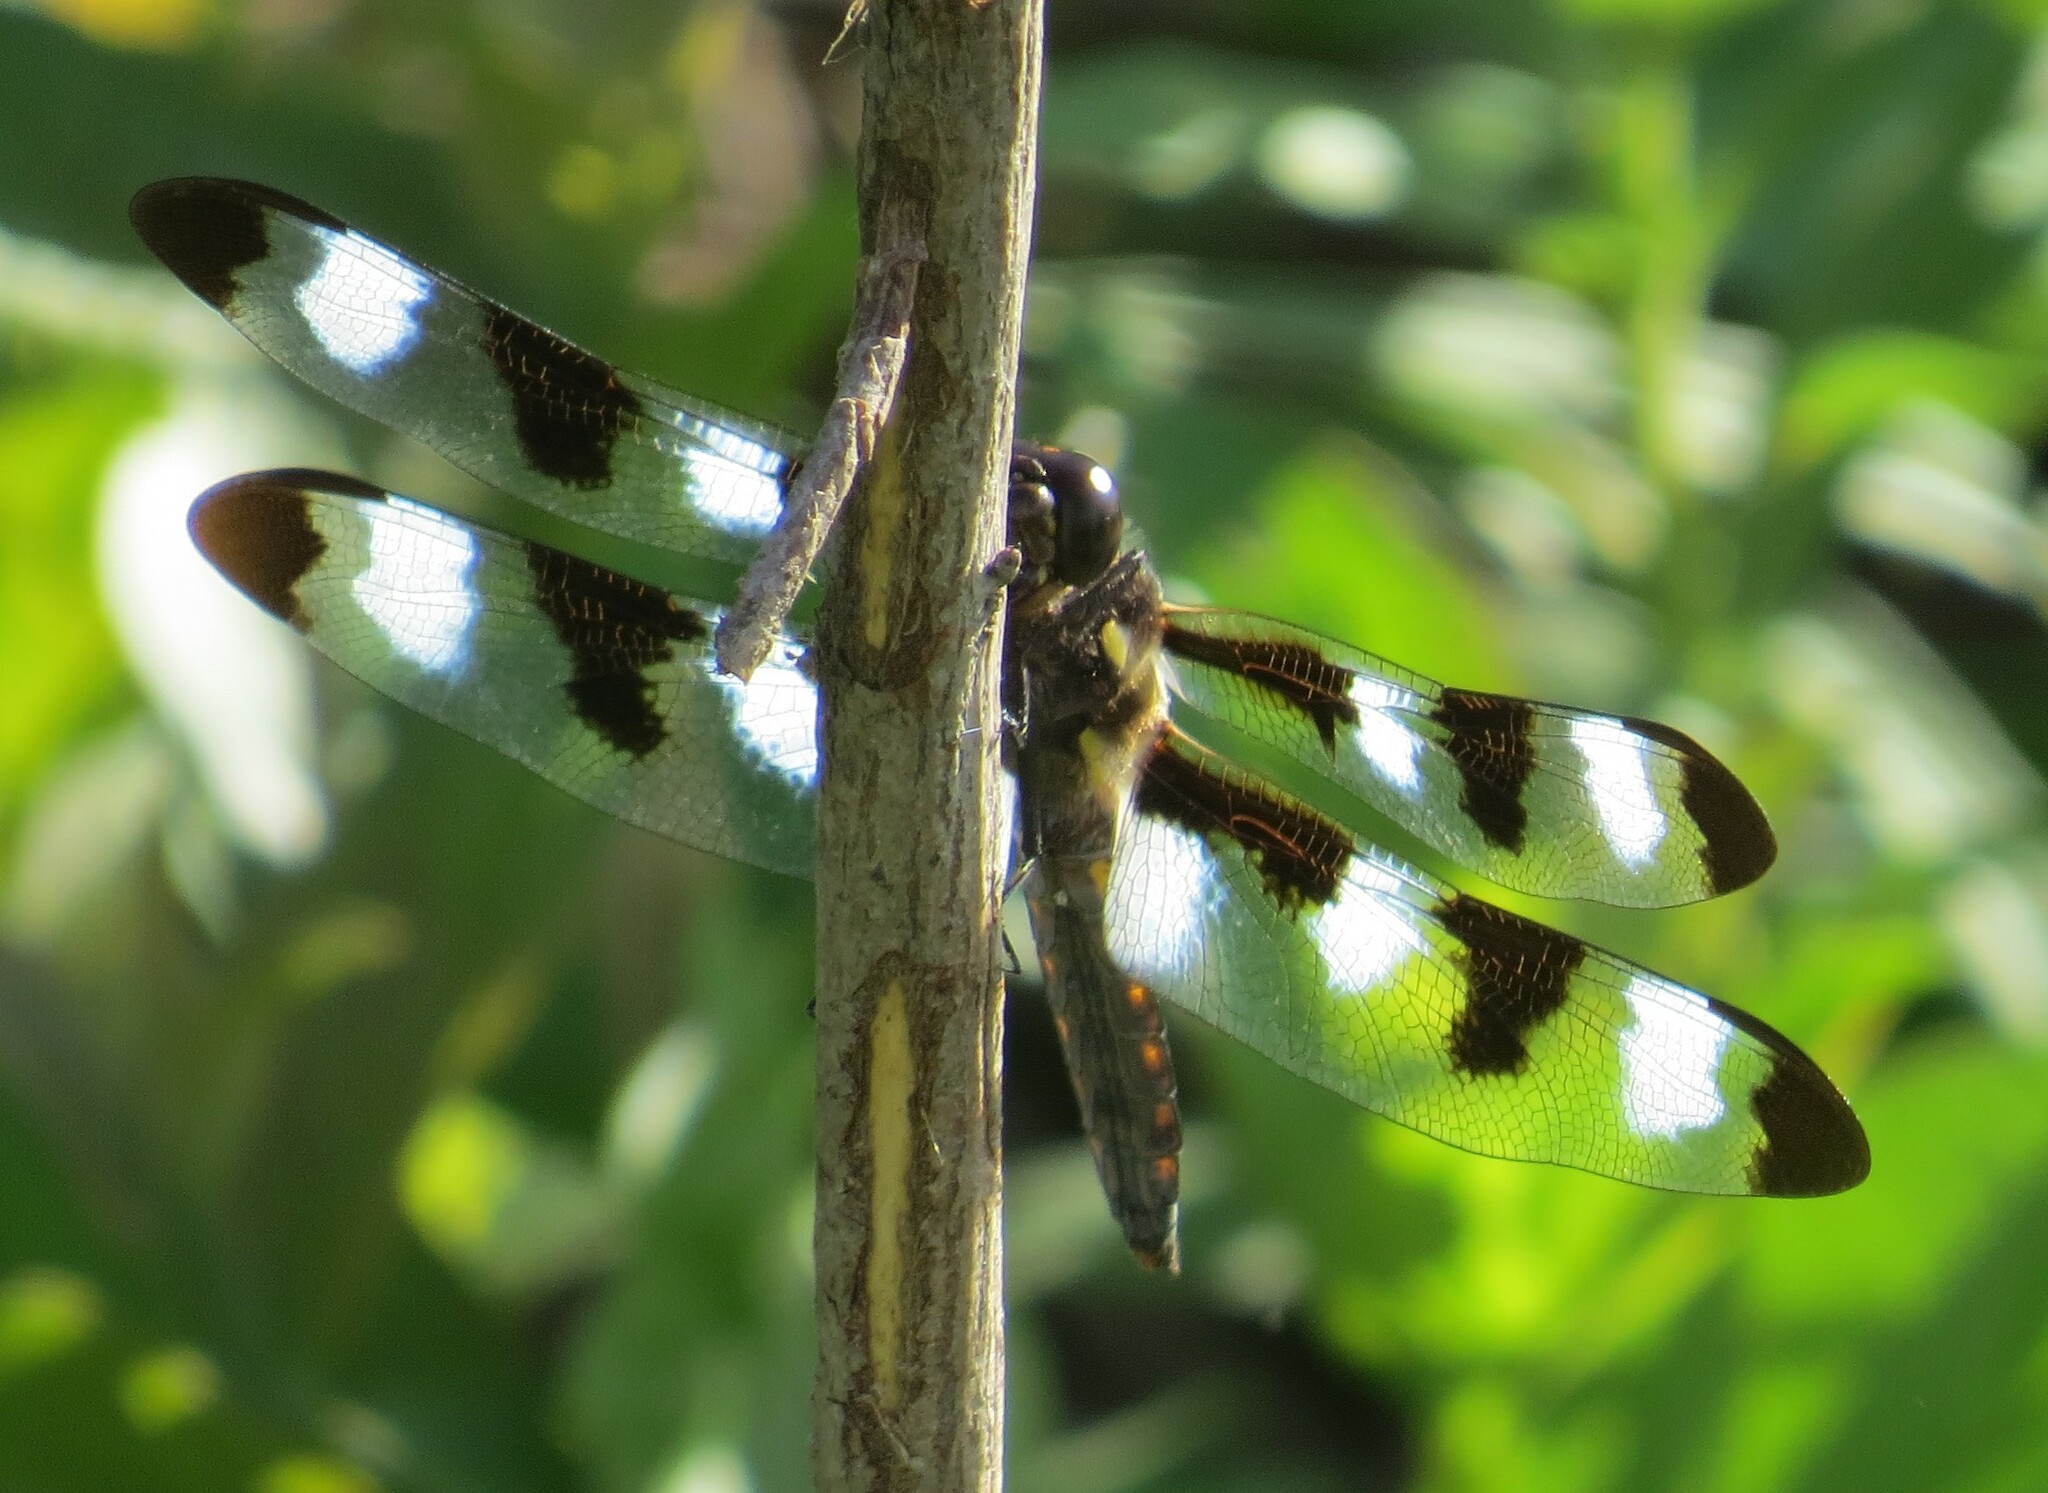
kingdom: Animalia
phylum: Arthropoda
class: Insecta
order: Odonata
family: Libellulidae
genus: Libellula
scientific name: Libellula pulchella
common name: Twelve-spotted skimmer
